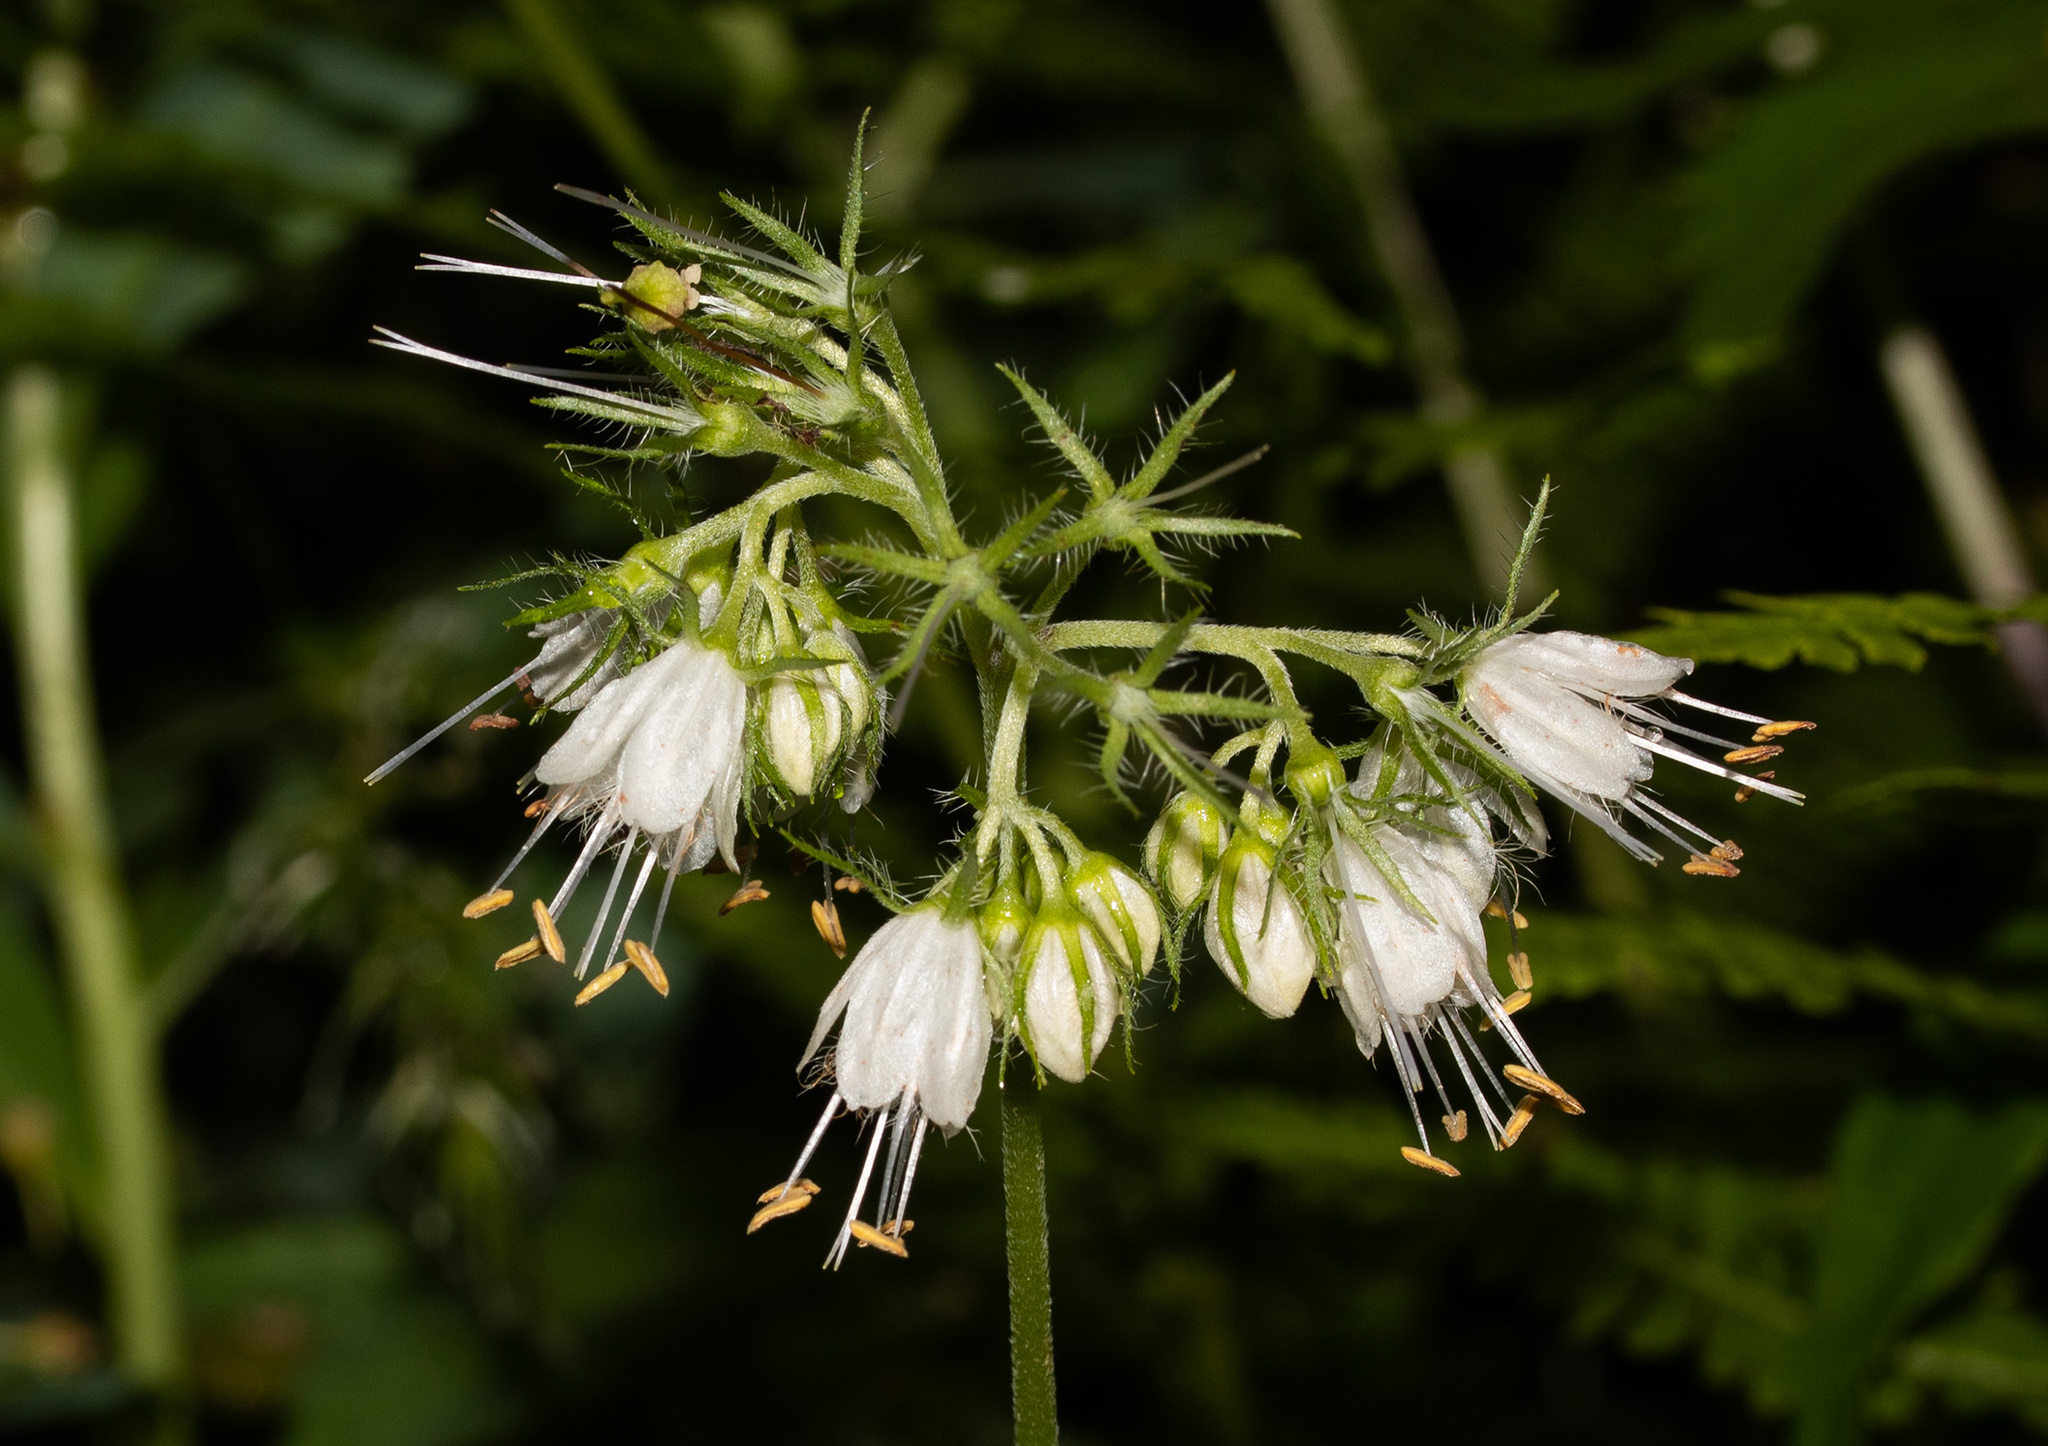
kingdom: Plantae
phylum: Tracheophyta
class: Magnoliopsida
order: Boraginales
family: Hydrophyllaceae
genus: Hydrophyllum
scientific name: Hydrophyllum virginianum
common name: Virginia waterleaf
